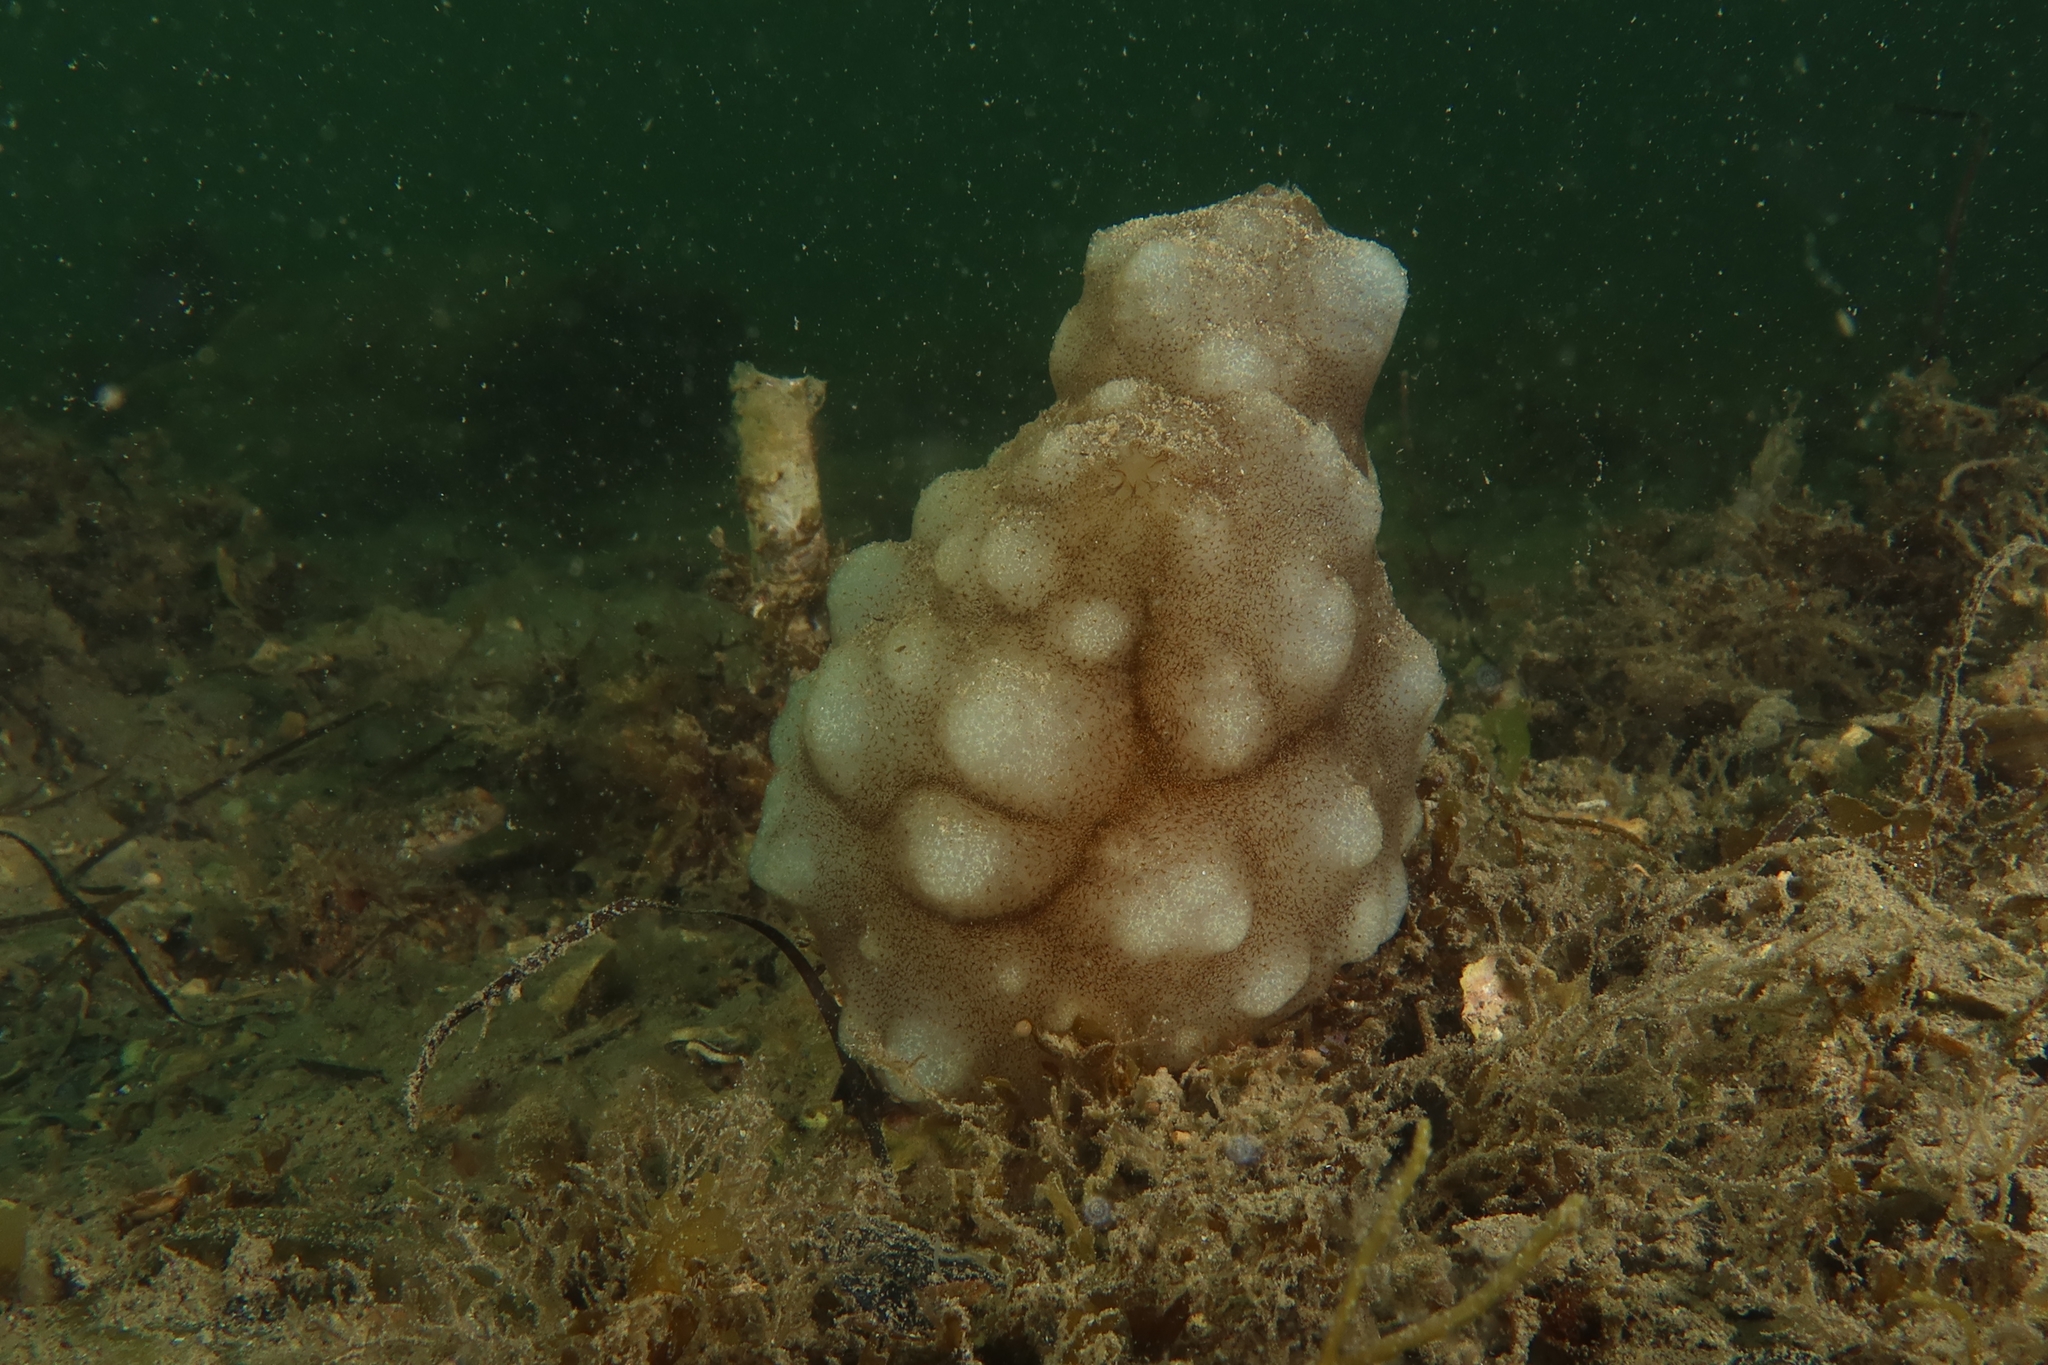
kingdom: Animalia
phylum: Chordata
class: Ascidiacea
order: Phlebobranchia
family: Ascidiidae
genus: Phallusia
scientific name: Phallusia mammillata
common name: Neptune's heart sea squirt
